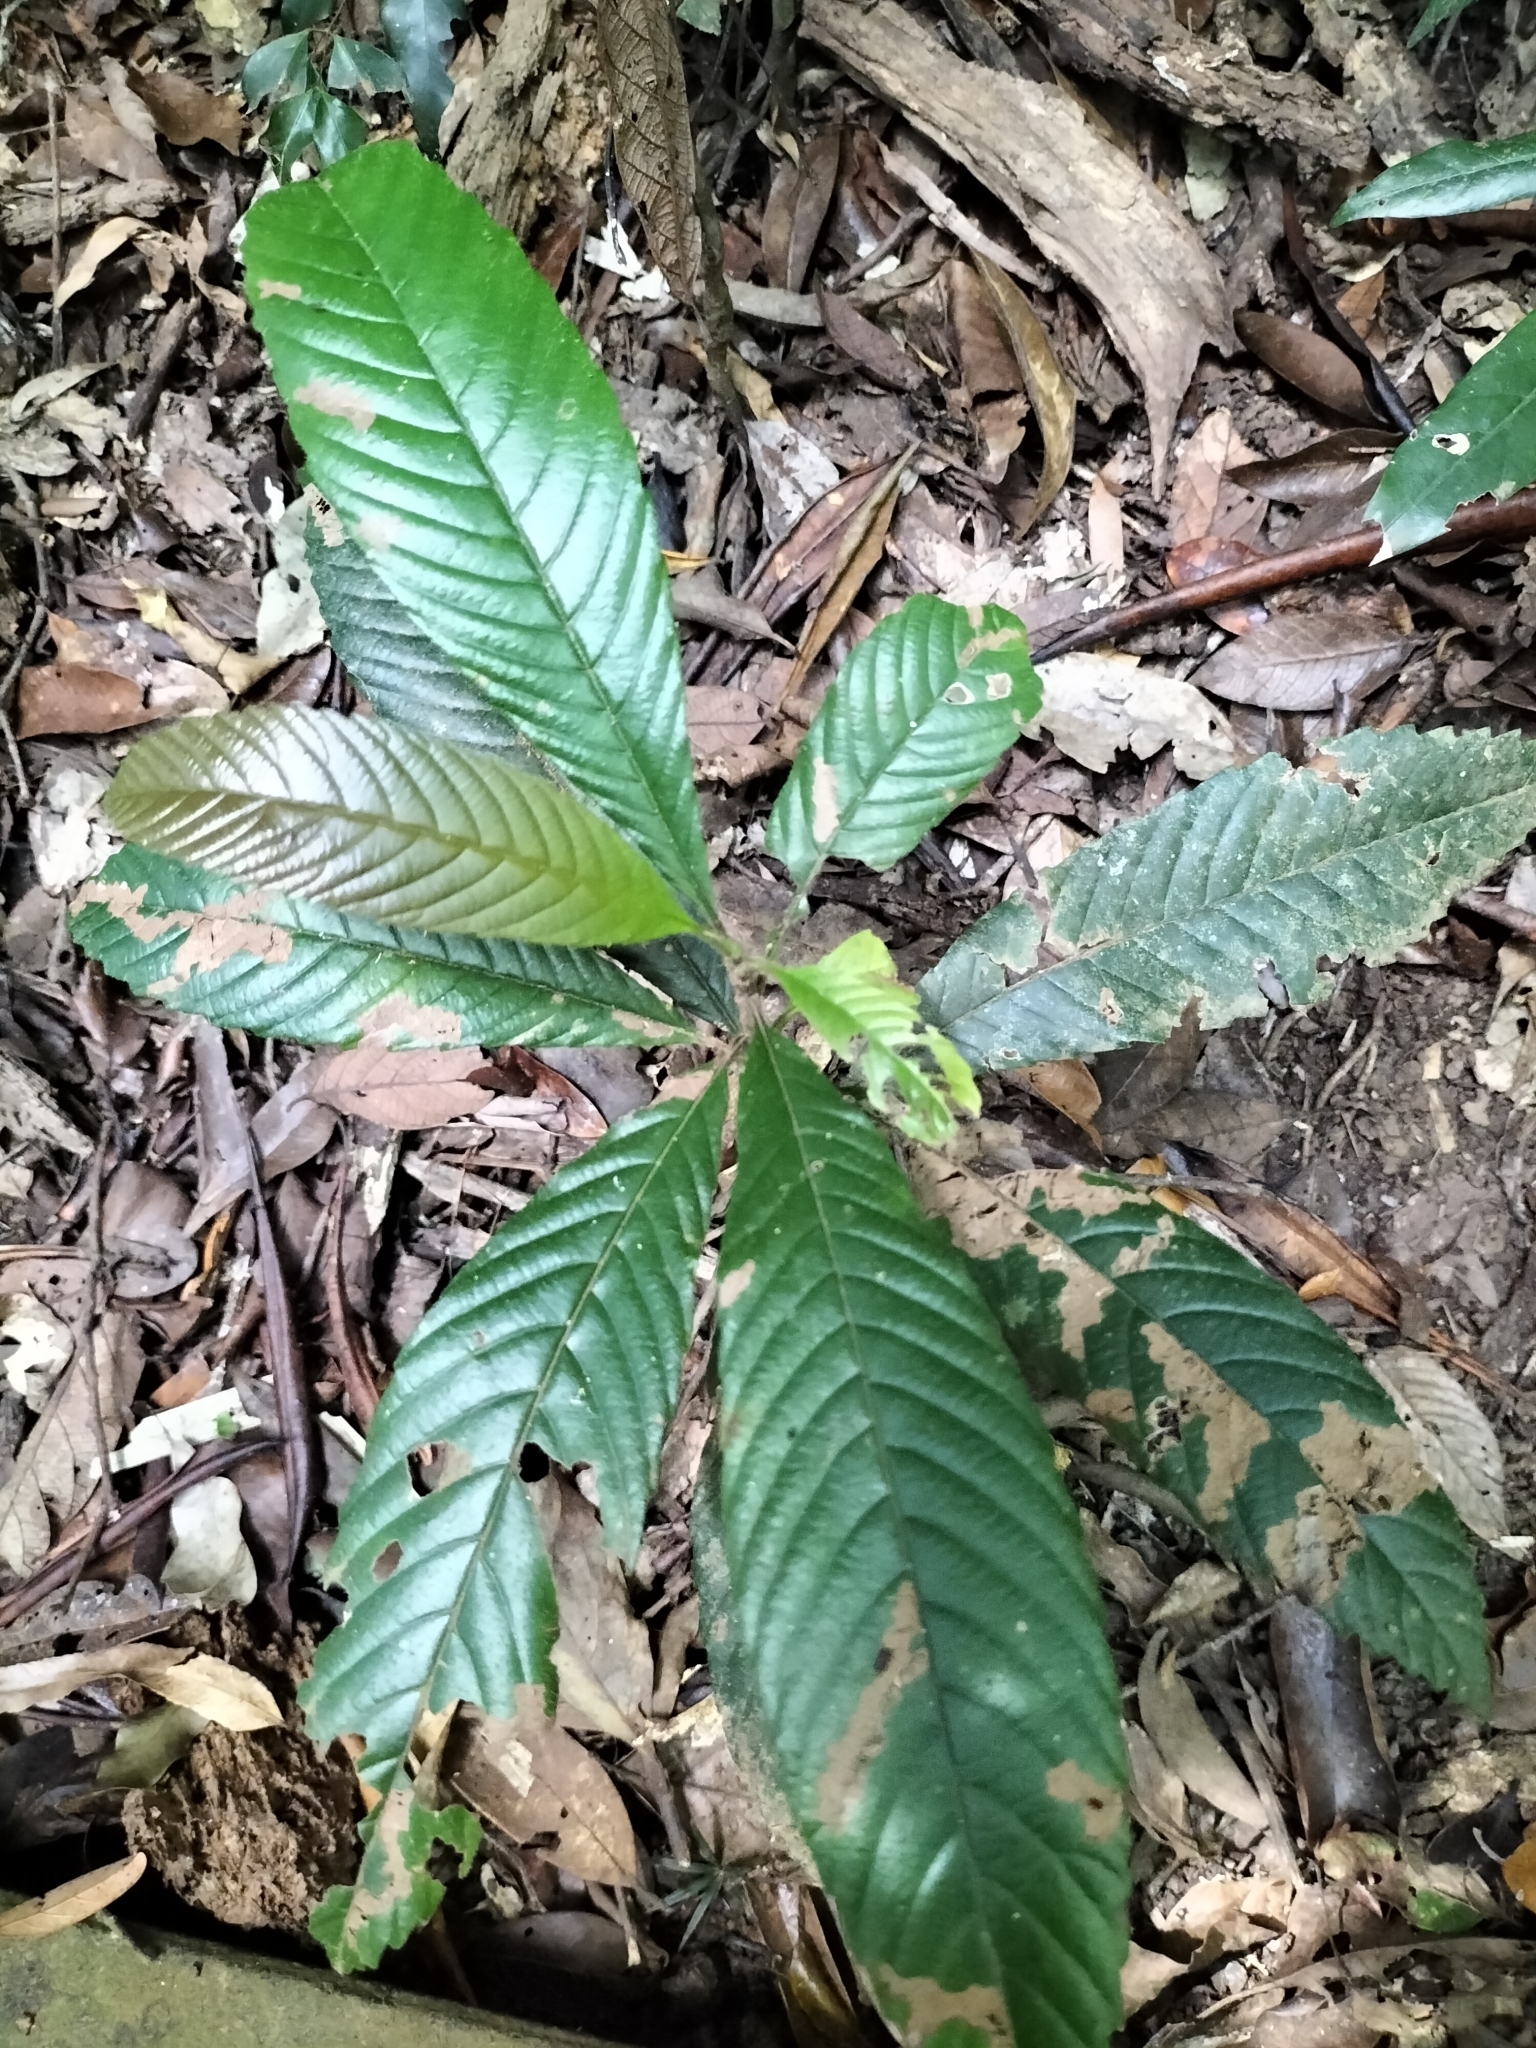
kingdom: Plantae
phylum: Tracheophyta
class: Magnoliopsida
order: Dilleniales
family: Dilleniaceae
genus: Tetracera
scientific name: Tetracera nordtiana
